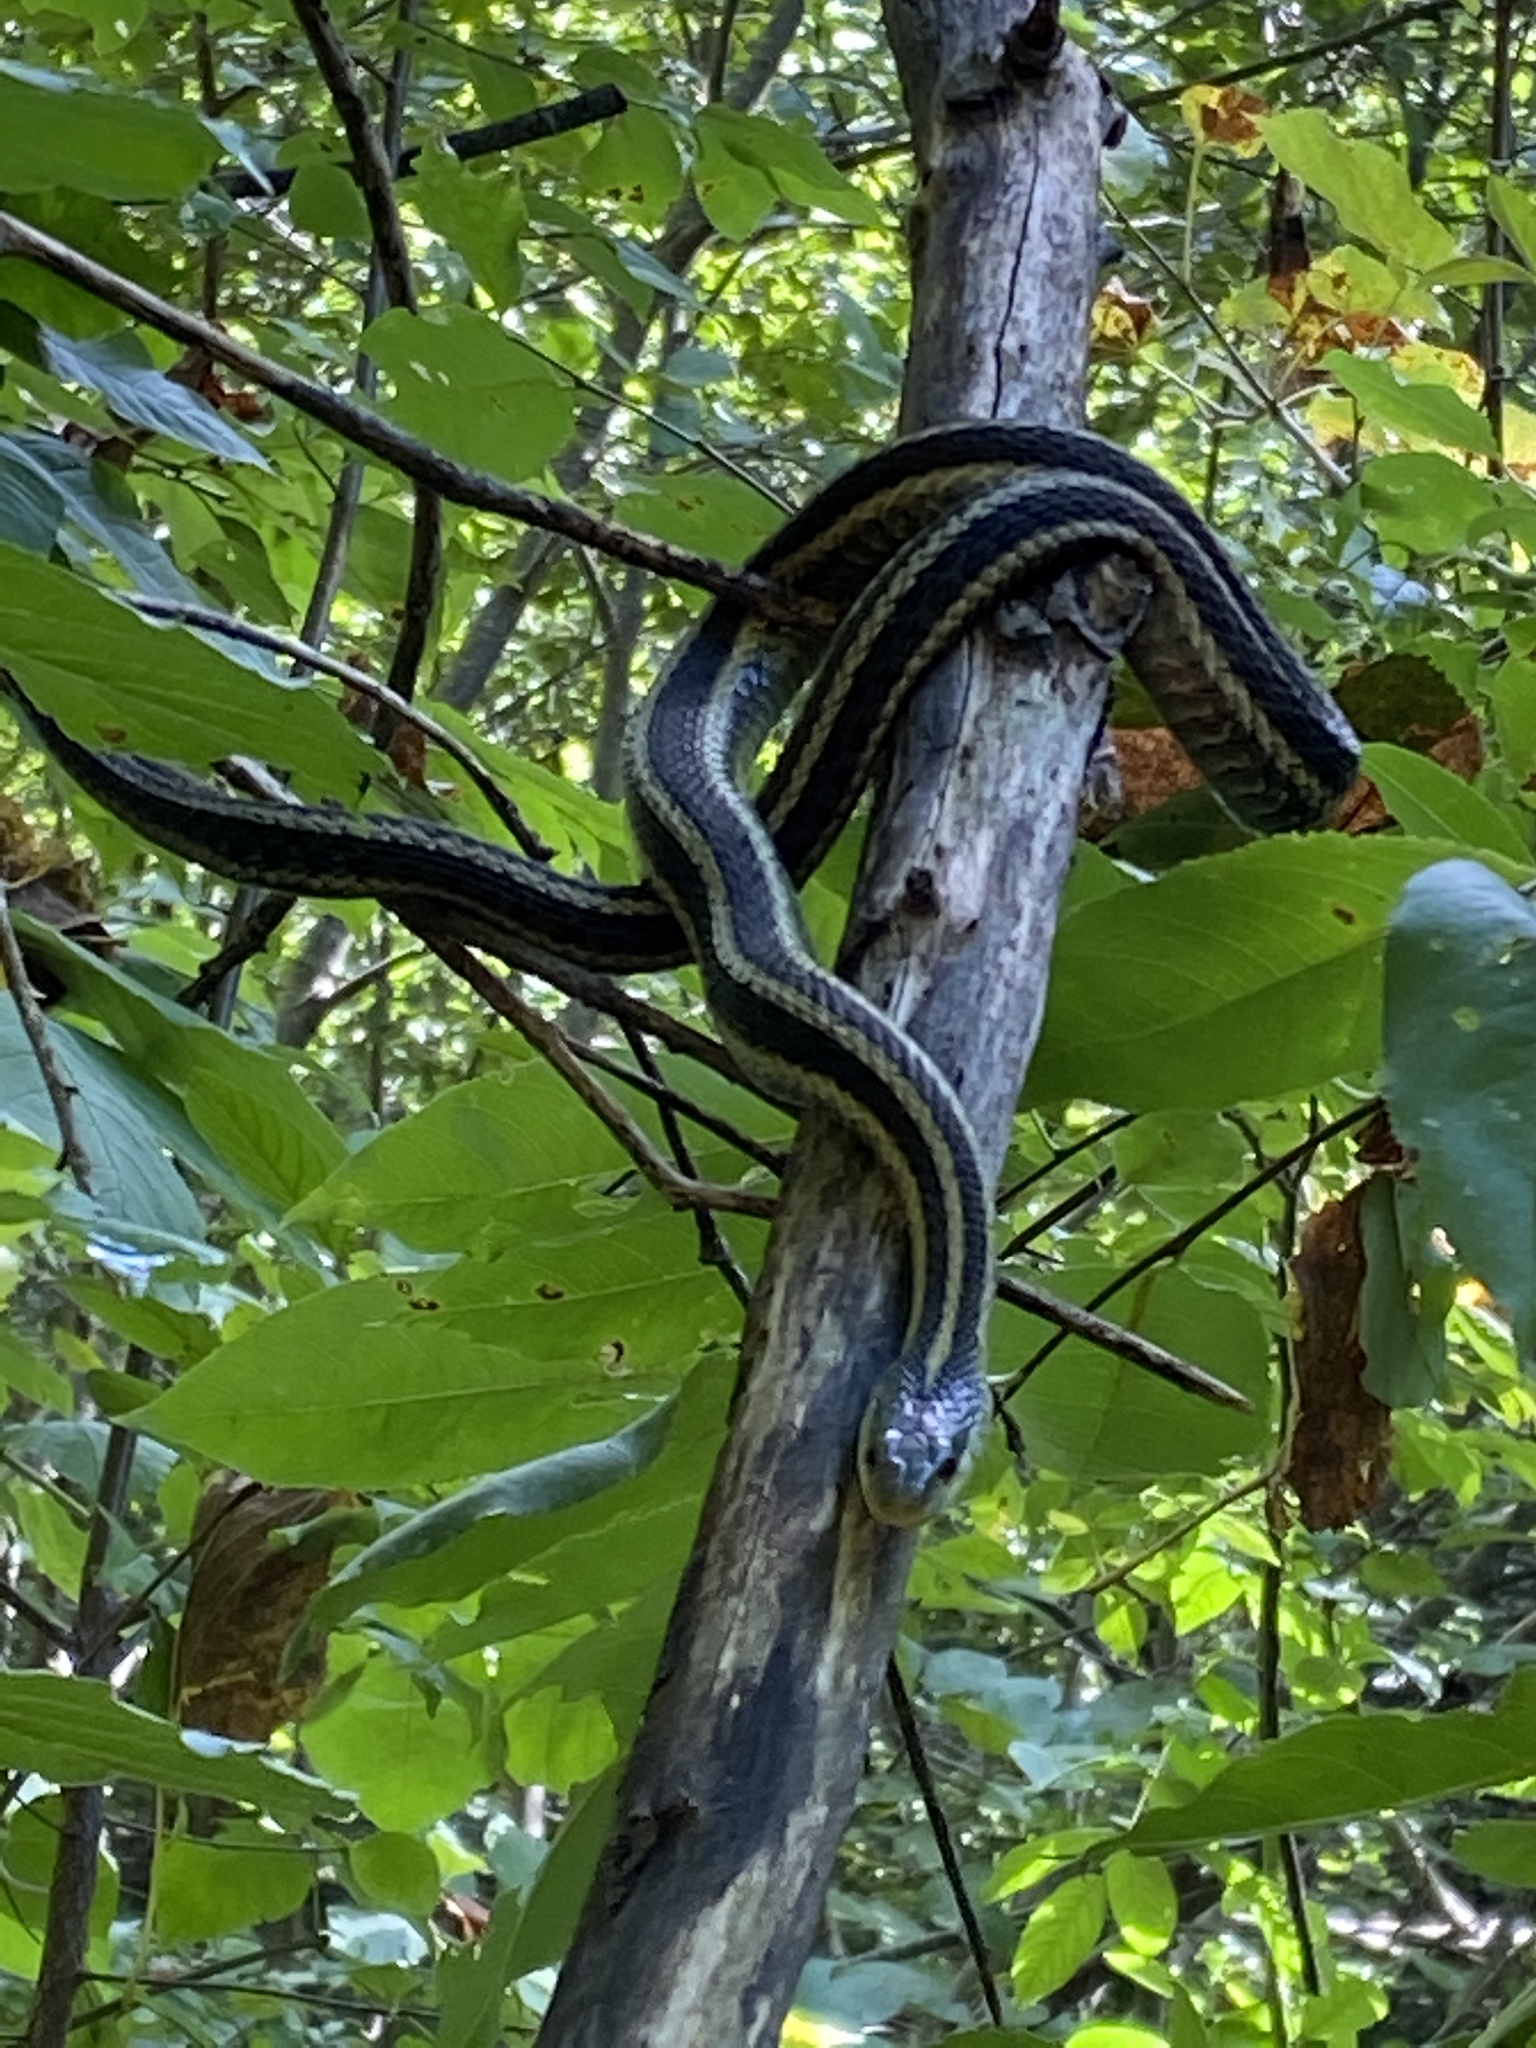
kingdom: Animalia
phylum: Chordata
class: Squamata
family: Colubridae
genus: Thamnophis
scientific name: Thamnophis sirtalis
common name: Common garter snake
